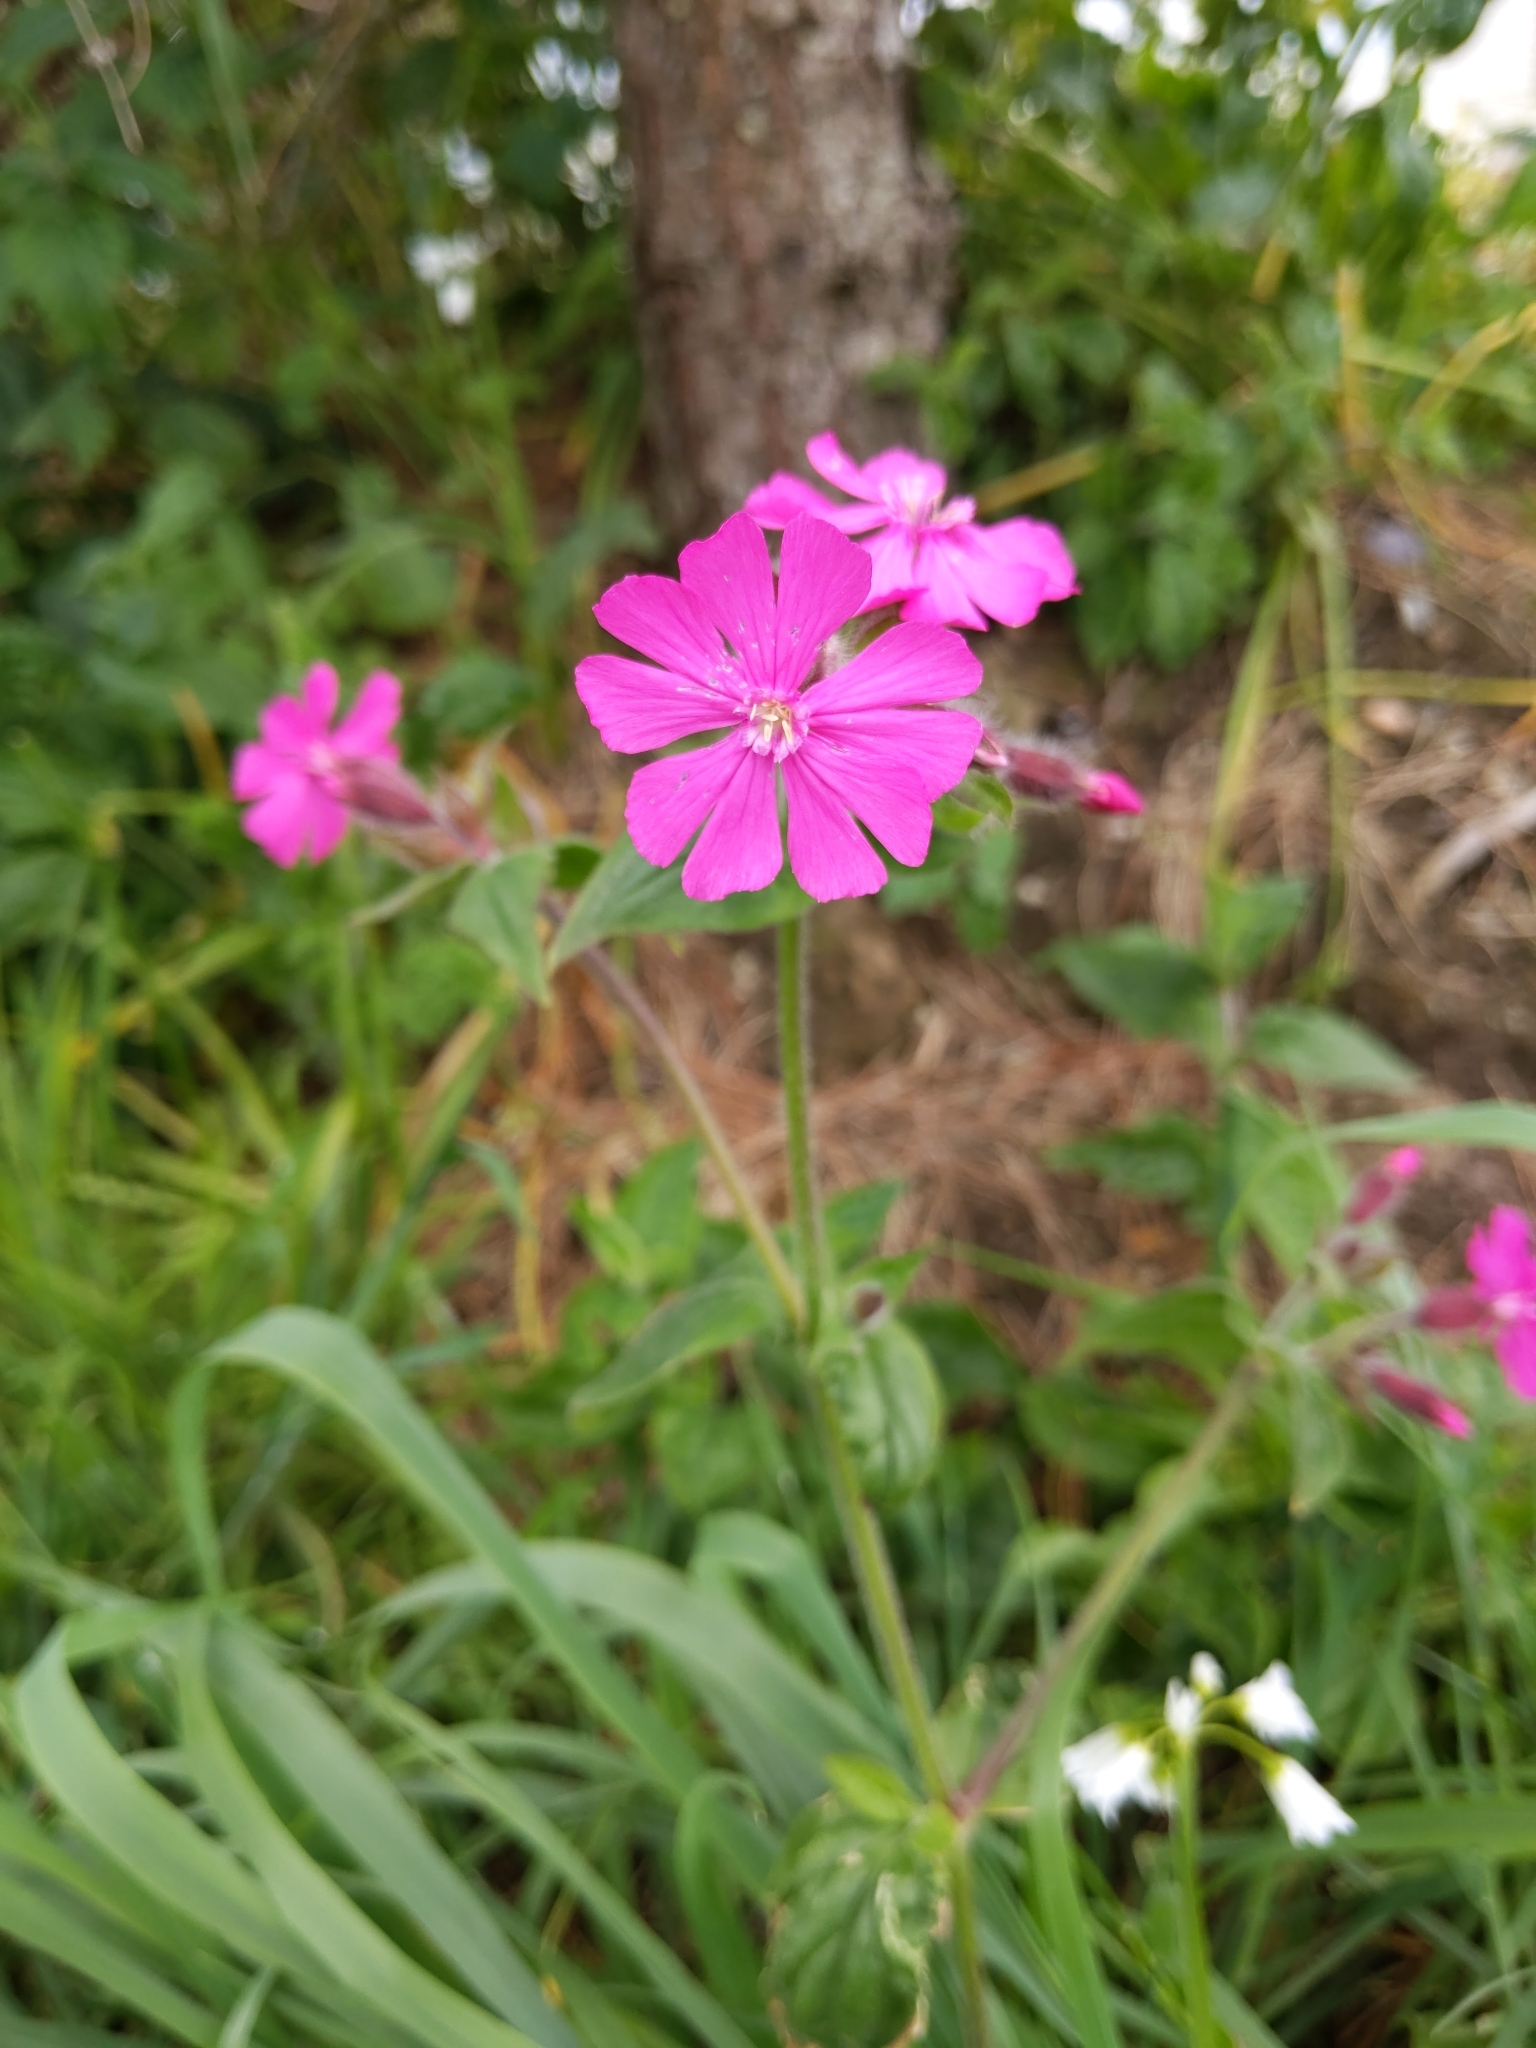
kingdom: Plantae
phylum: Tracheophyta
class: Magnoliopsida
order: Caryophyllales
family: Caryophyllaceae
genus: Silene
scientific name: Silene dioica
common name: Red campion
